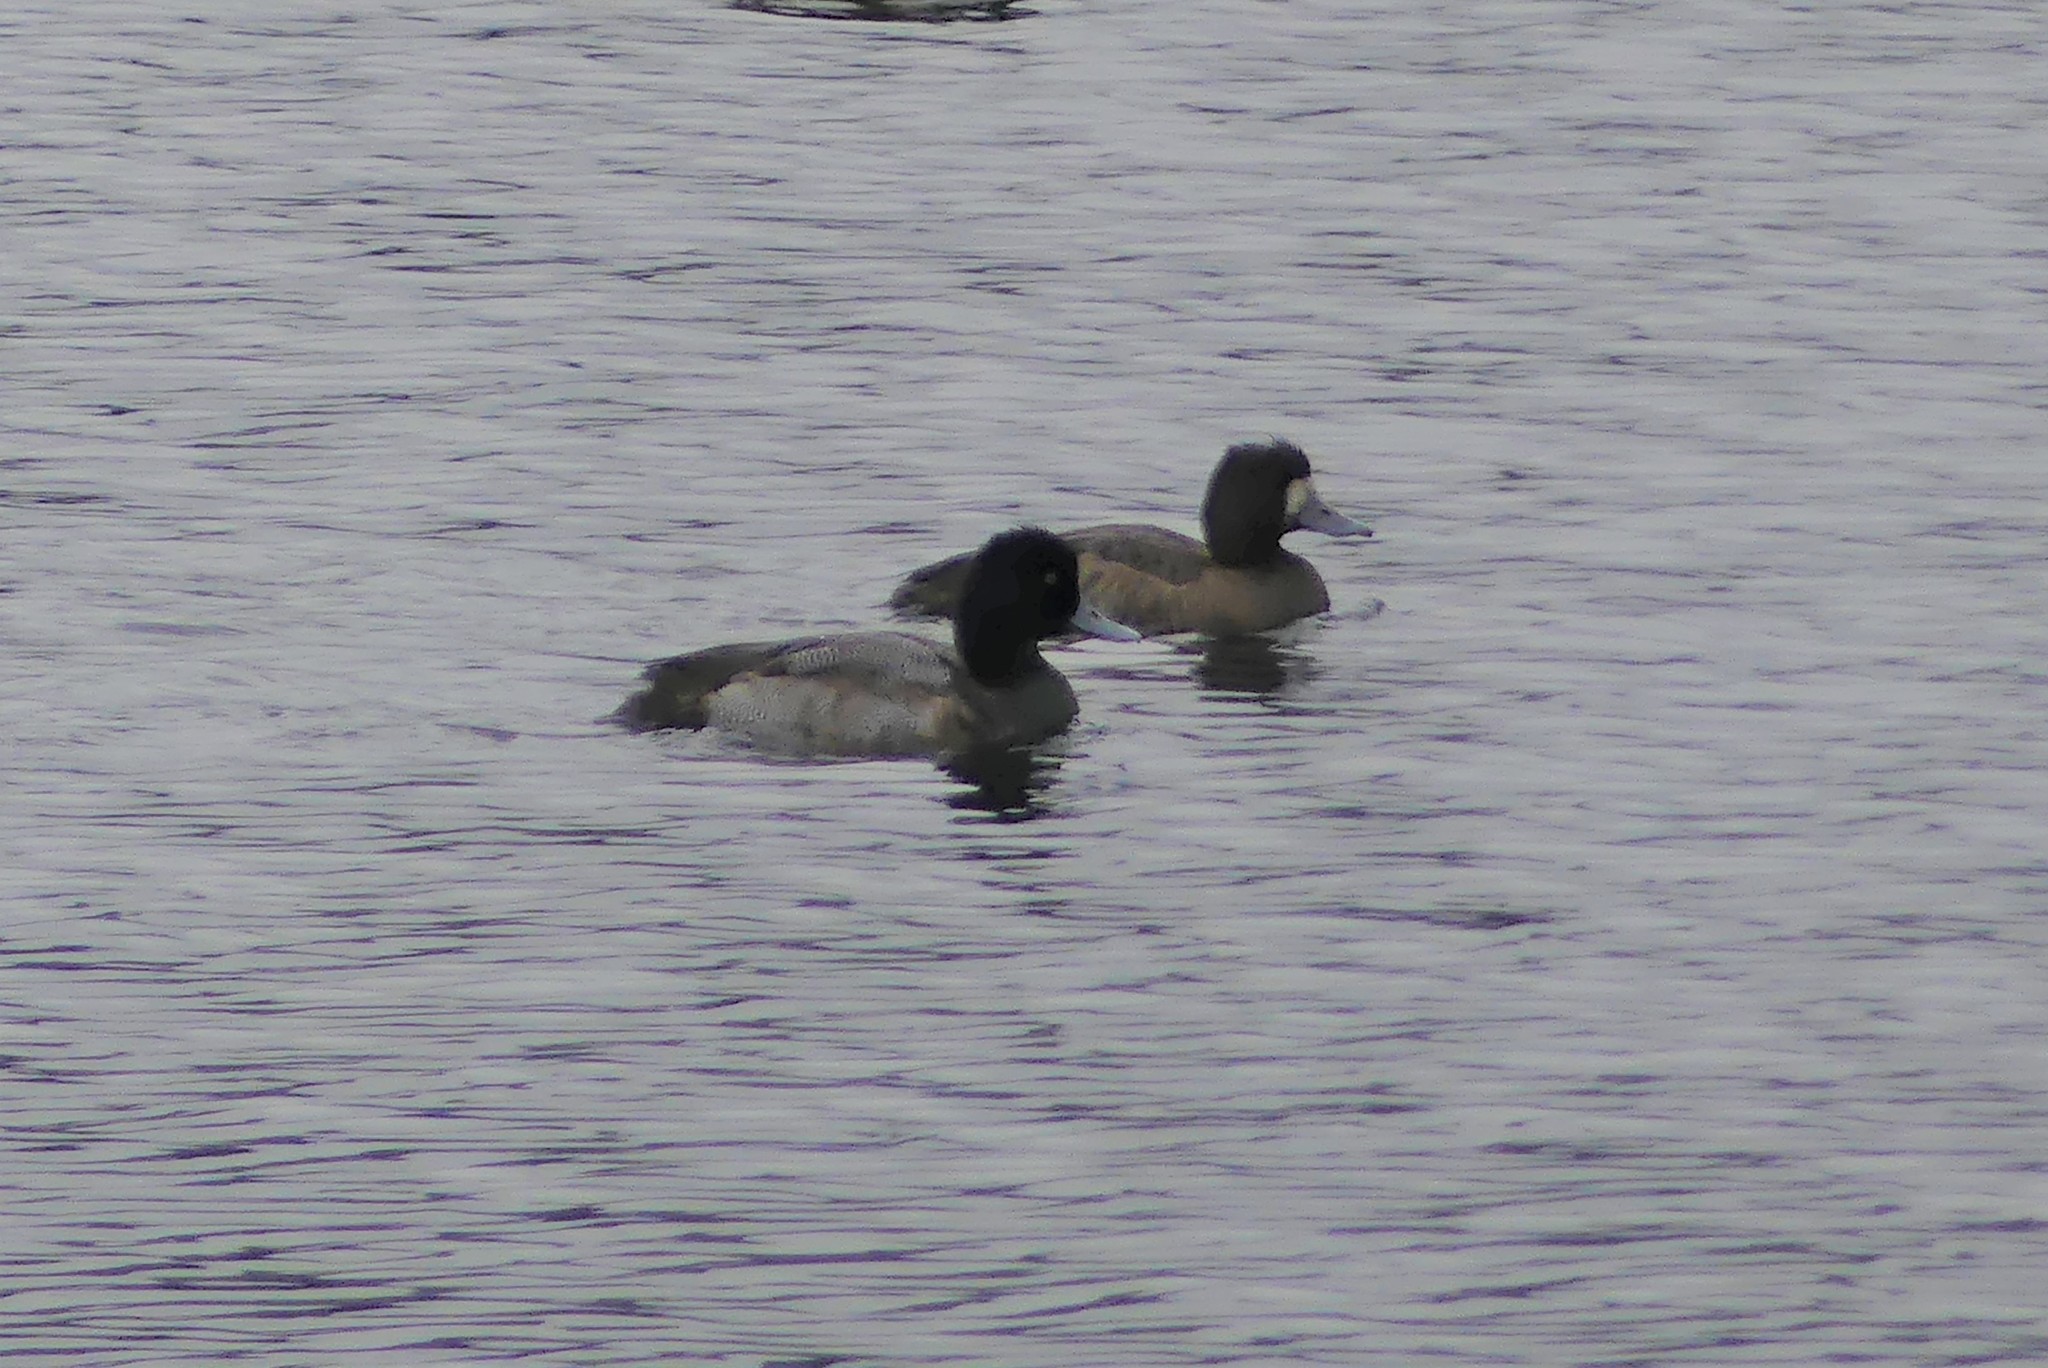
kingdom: Animalia
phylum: Chordata
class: Aves
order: Anseriformes
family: Anatidae
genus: Aythya
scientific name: Aythya affinis
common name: Lesser scaup
